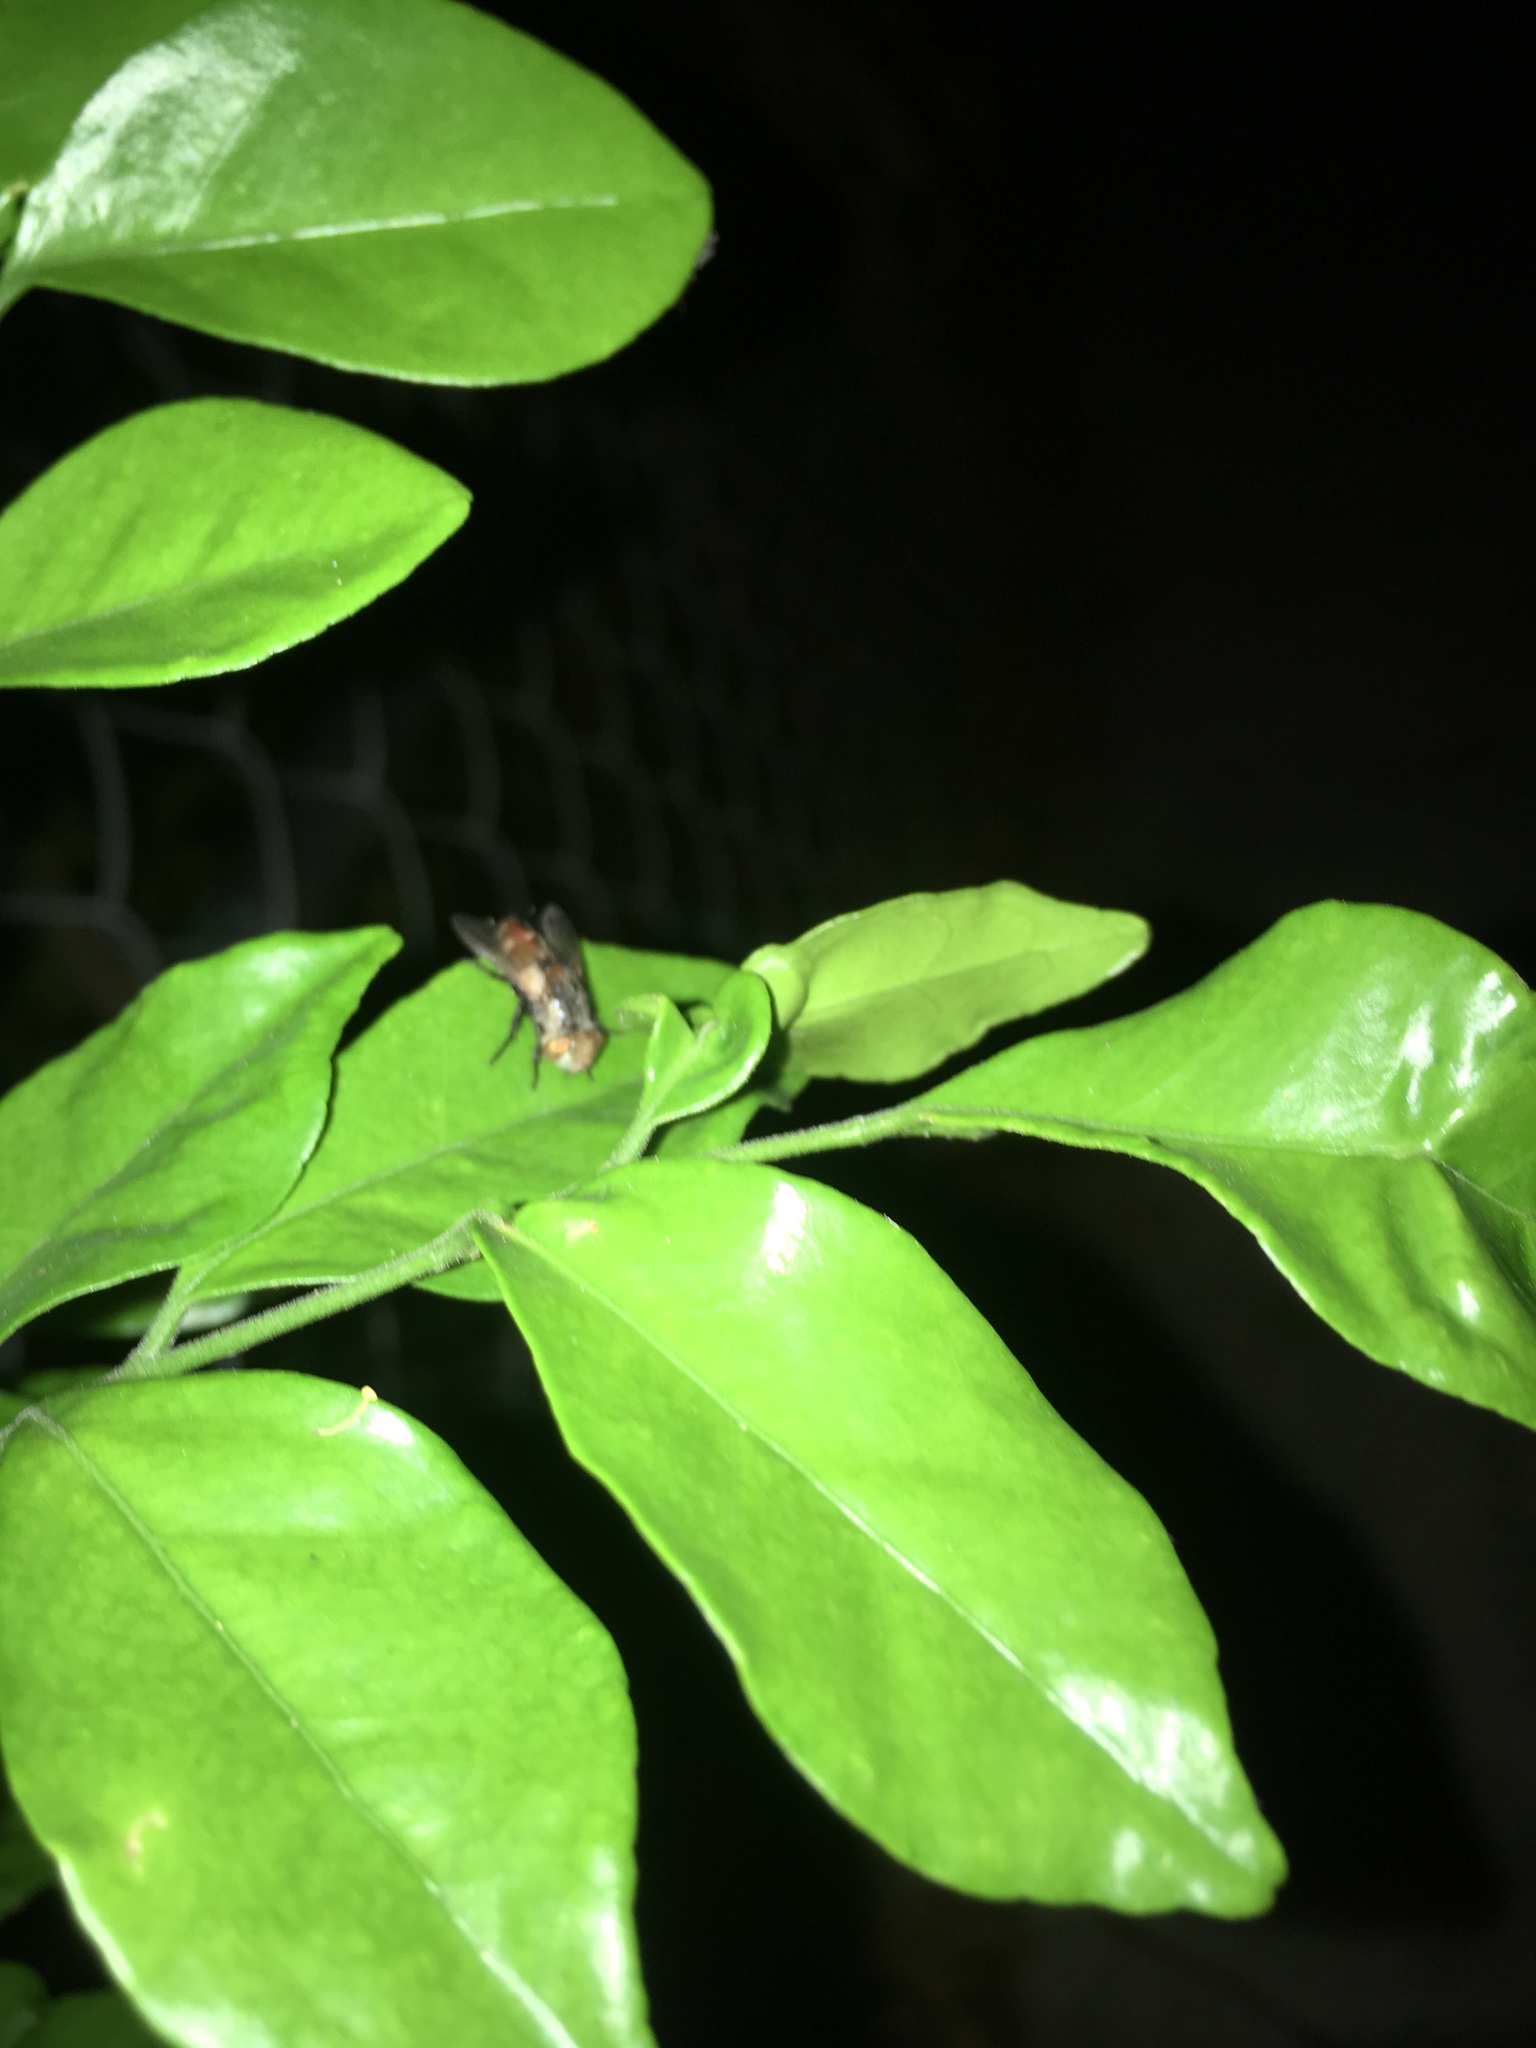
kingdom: Animalia
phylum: Arthropoda
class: Insecta
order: Diptera
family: Tachinidae
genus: Gonia
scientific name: Gonia crassicornis
